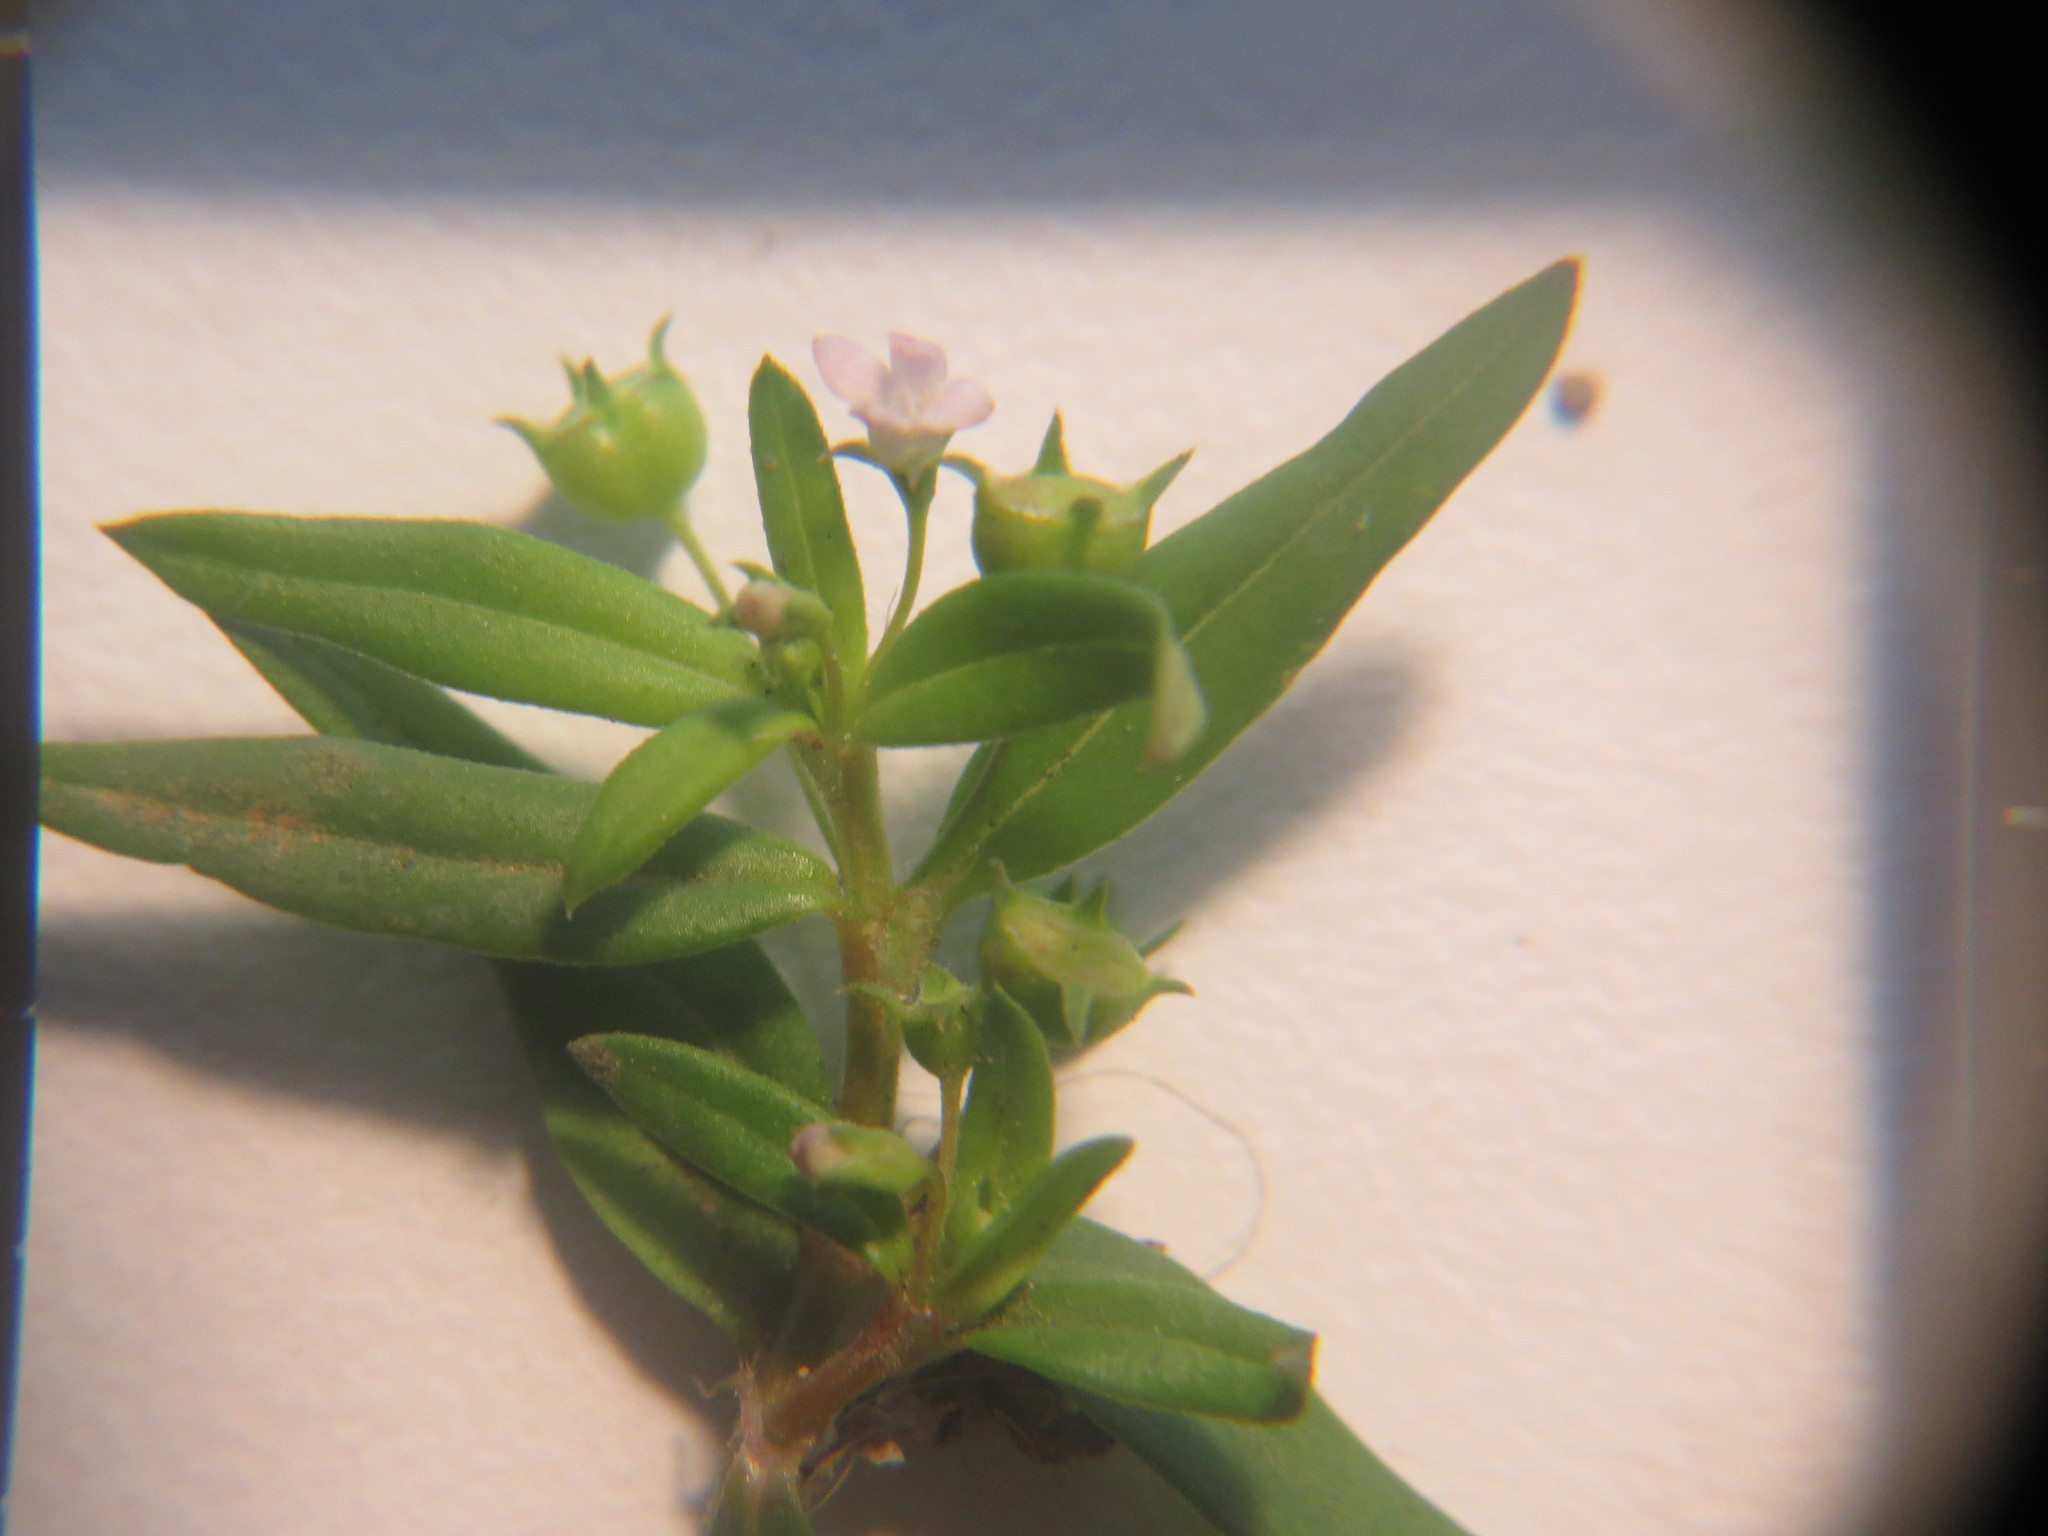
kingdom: Plantae
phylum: Tracheophyta
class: Magnoliopsida
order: Gentianales
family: Rubiaceae
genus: Oldenlandia
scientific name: Oldenlandia corymbosa
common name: Flat-top mille graines
